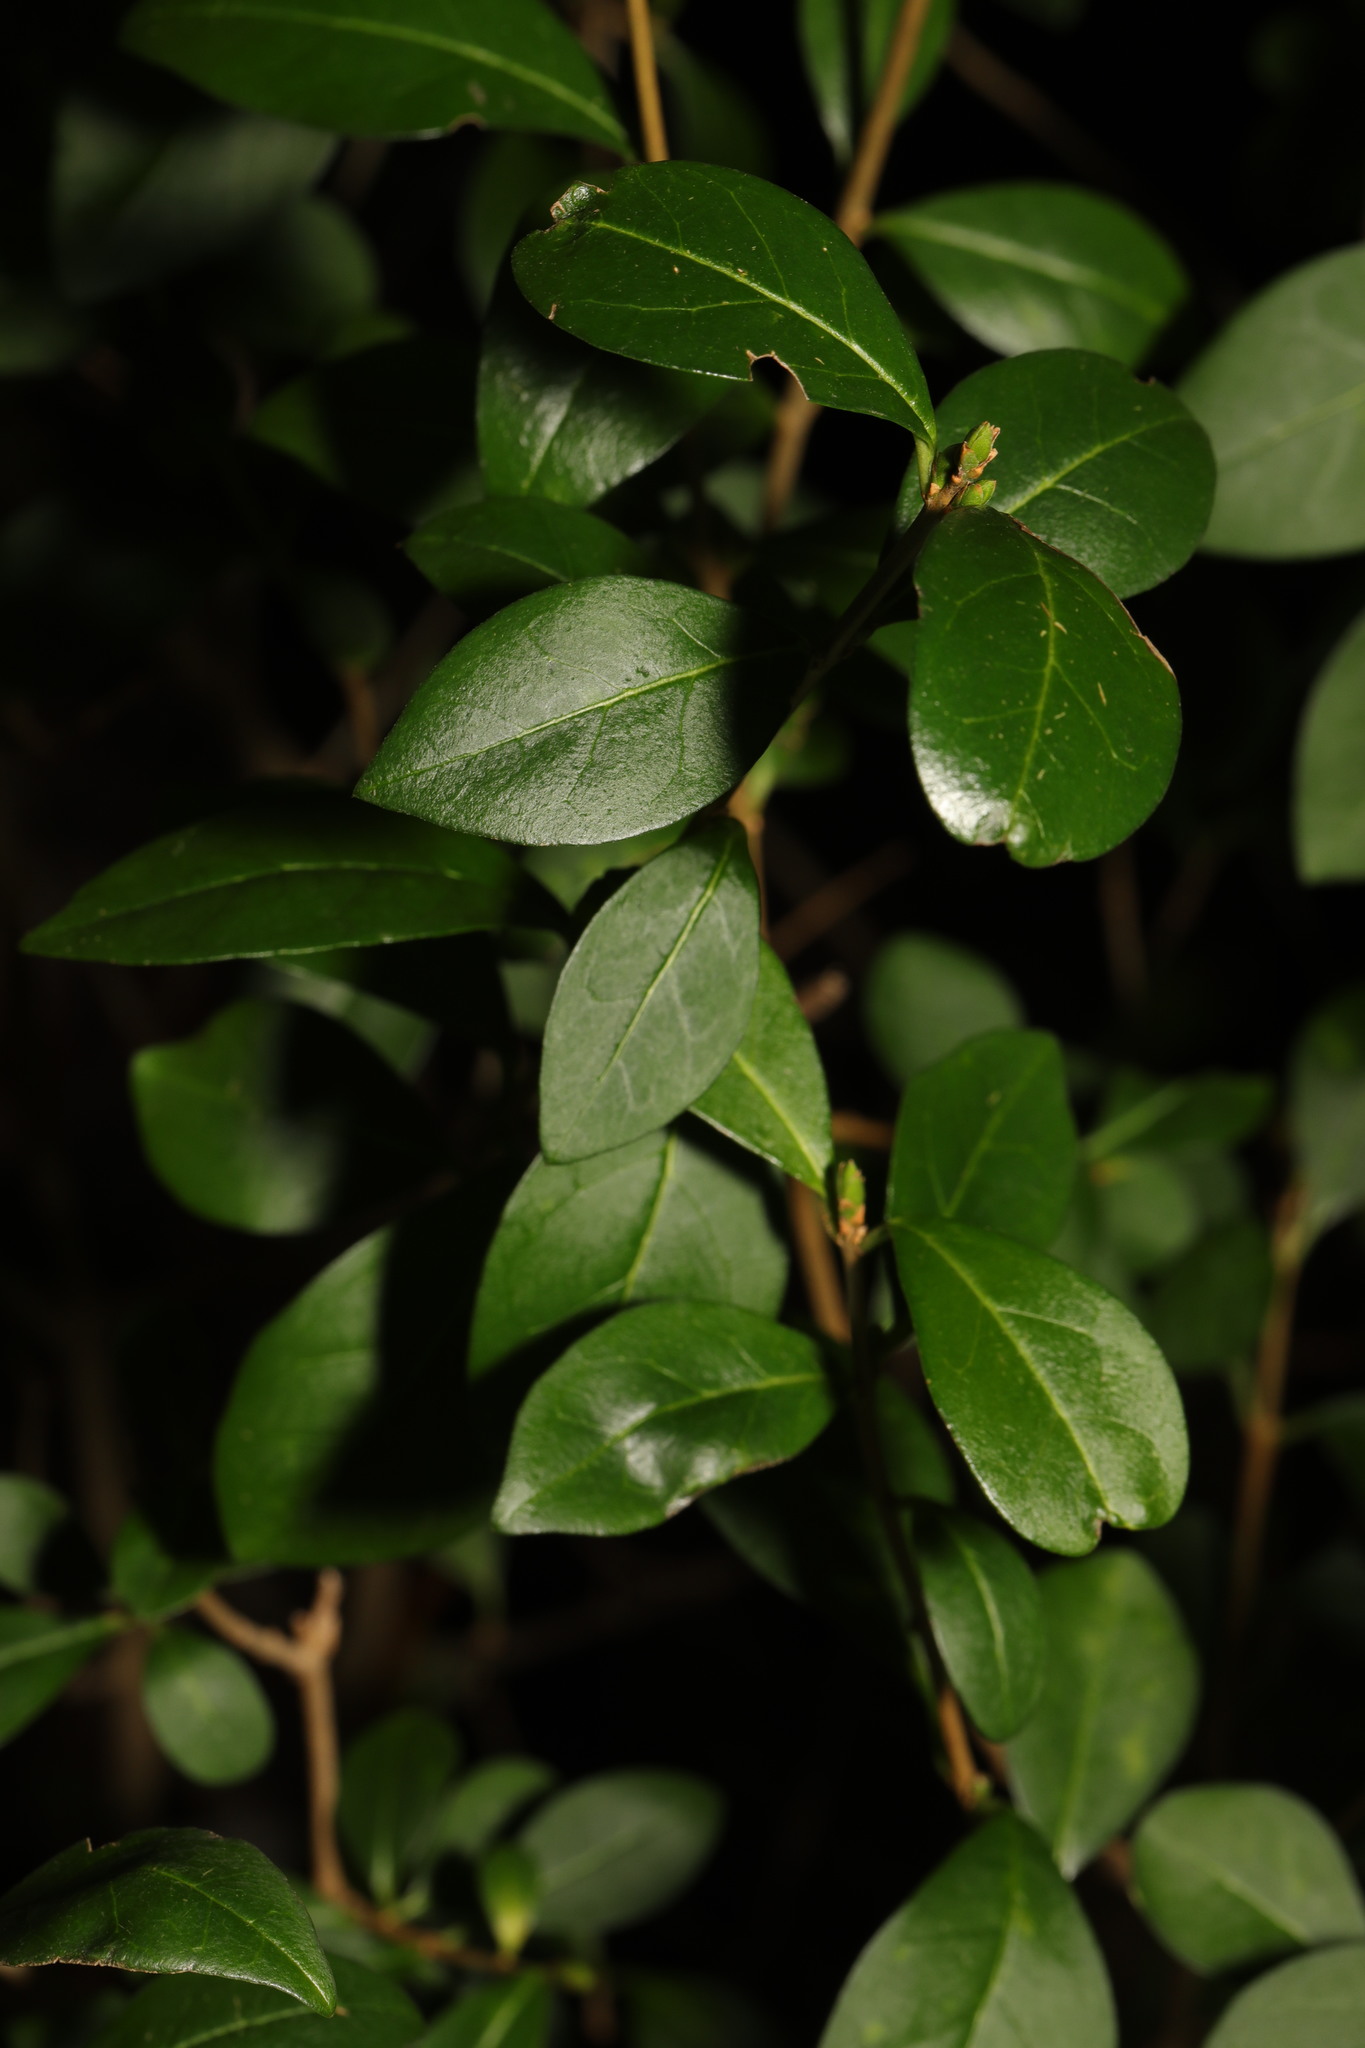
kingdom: Plantae
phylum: Tracheophyta
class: Magnoliopsida
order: Lamiales
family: Oleaceae
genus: Ligustrum
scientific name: Ligustrum ovalifolium
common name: California privet
